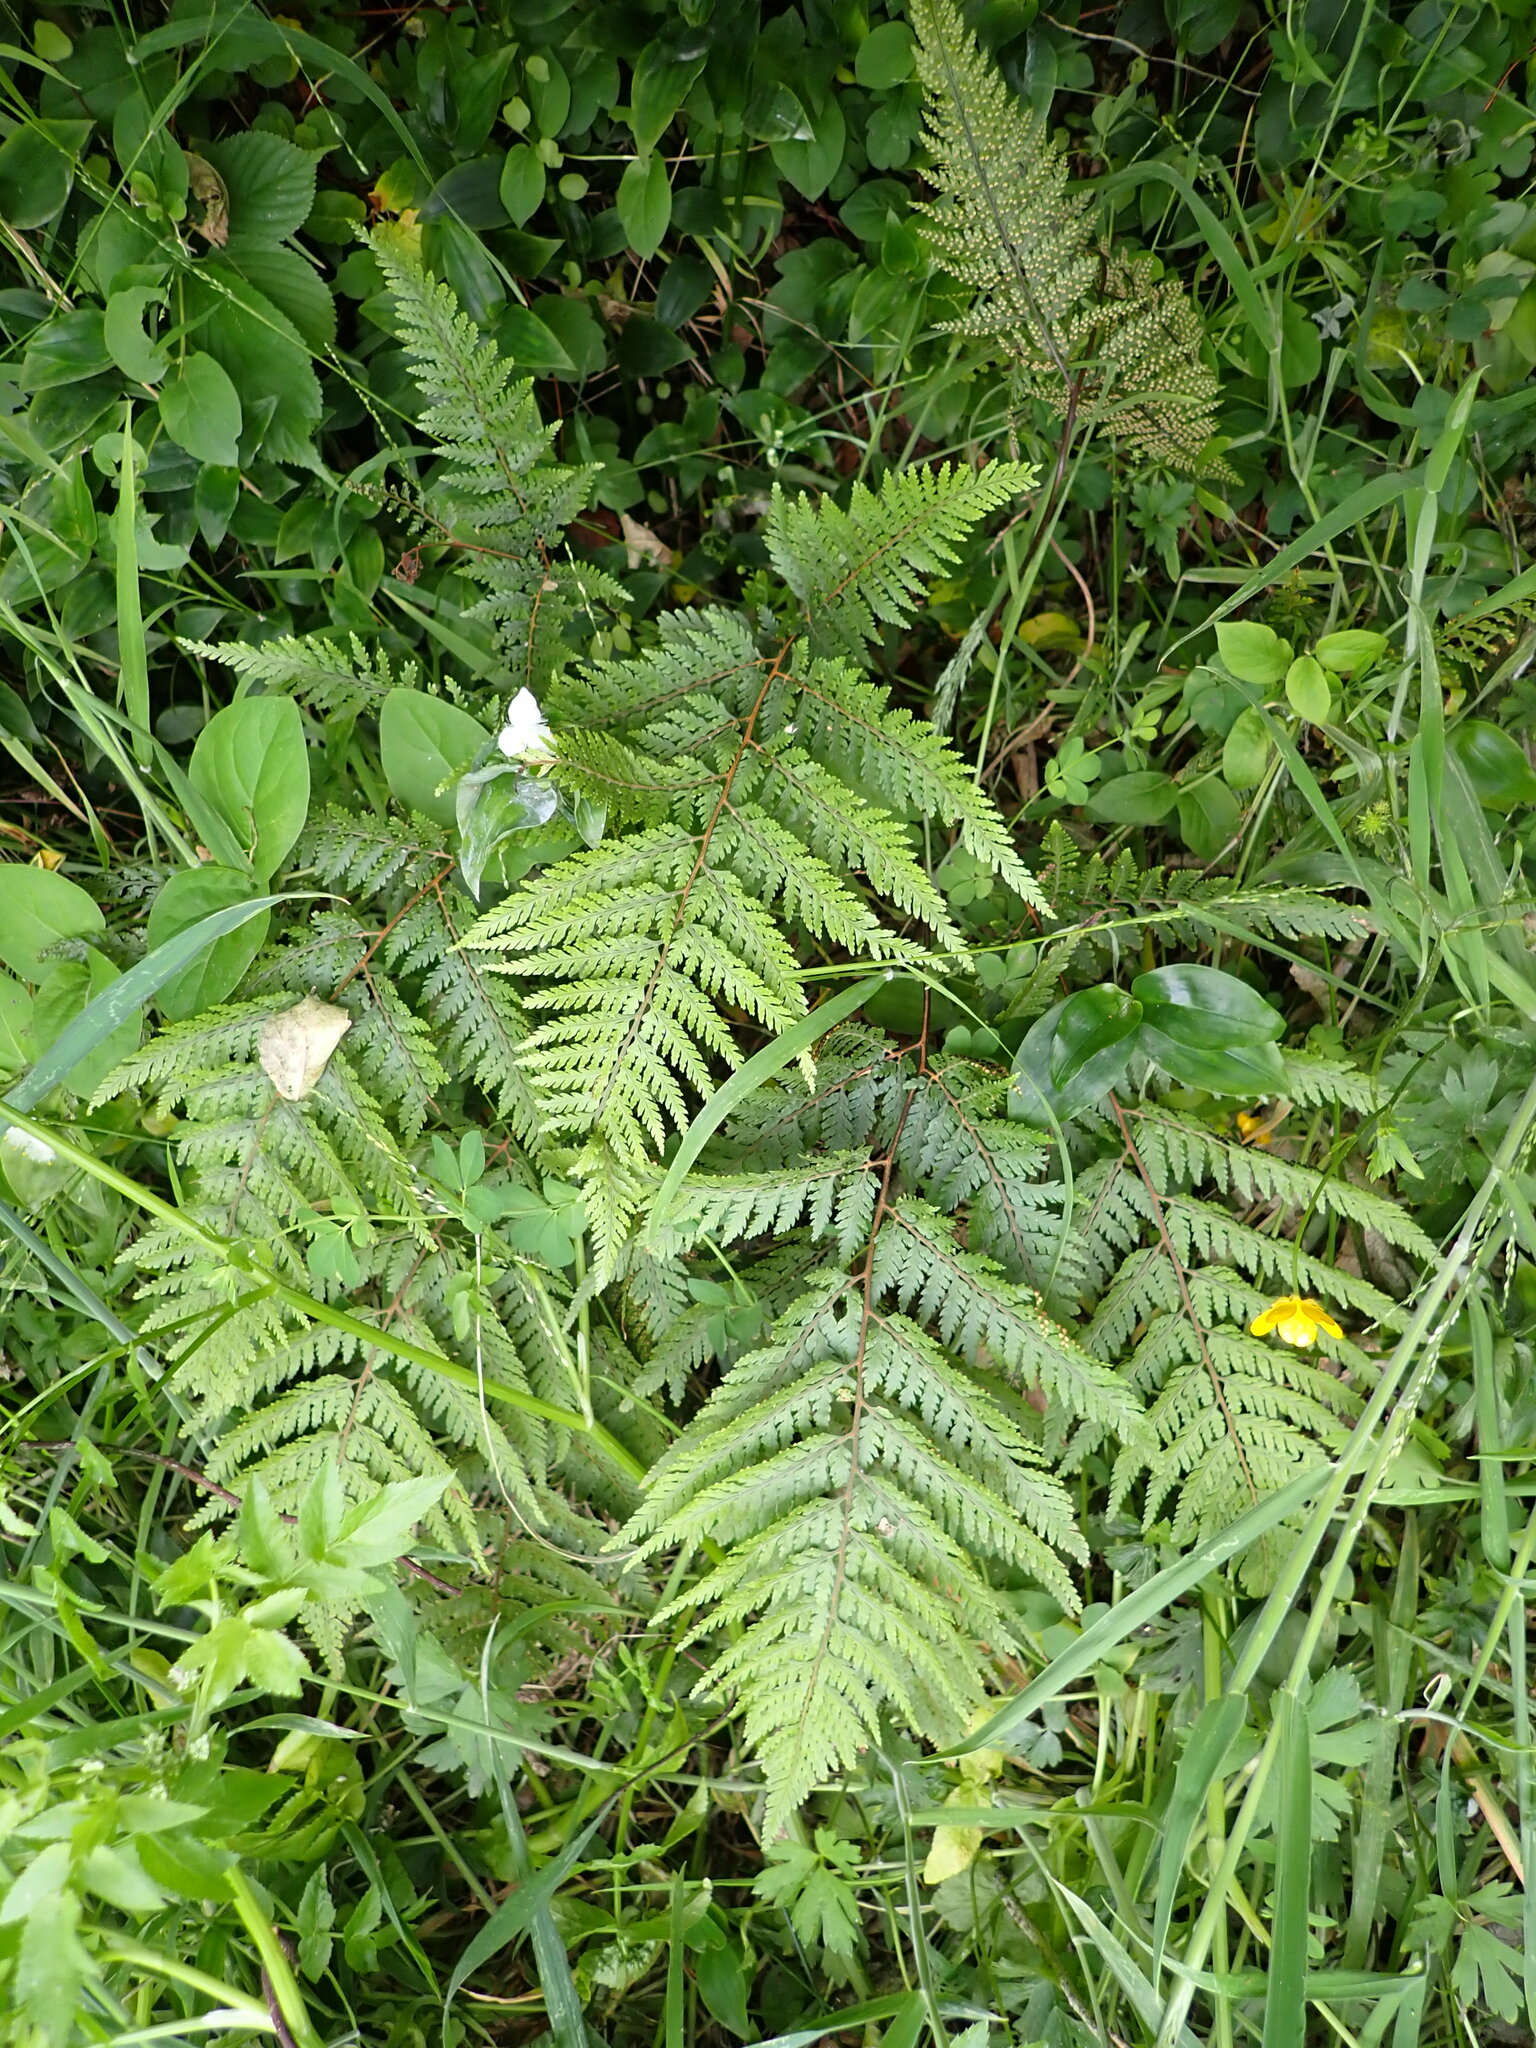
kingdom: Plantae
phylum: Tracheophyta
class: Polypodiopsida
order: Polypodiales
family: Dryopteridaceae
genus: Parapolystichum
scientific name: Parapolystichum glabellum
